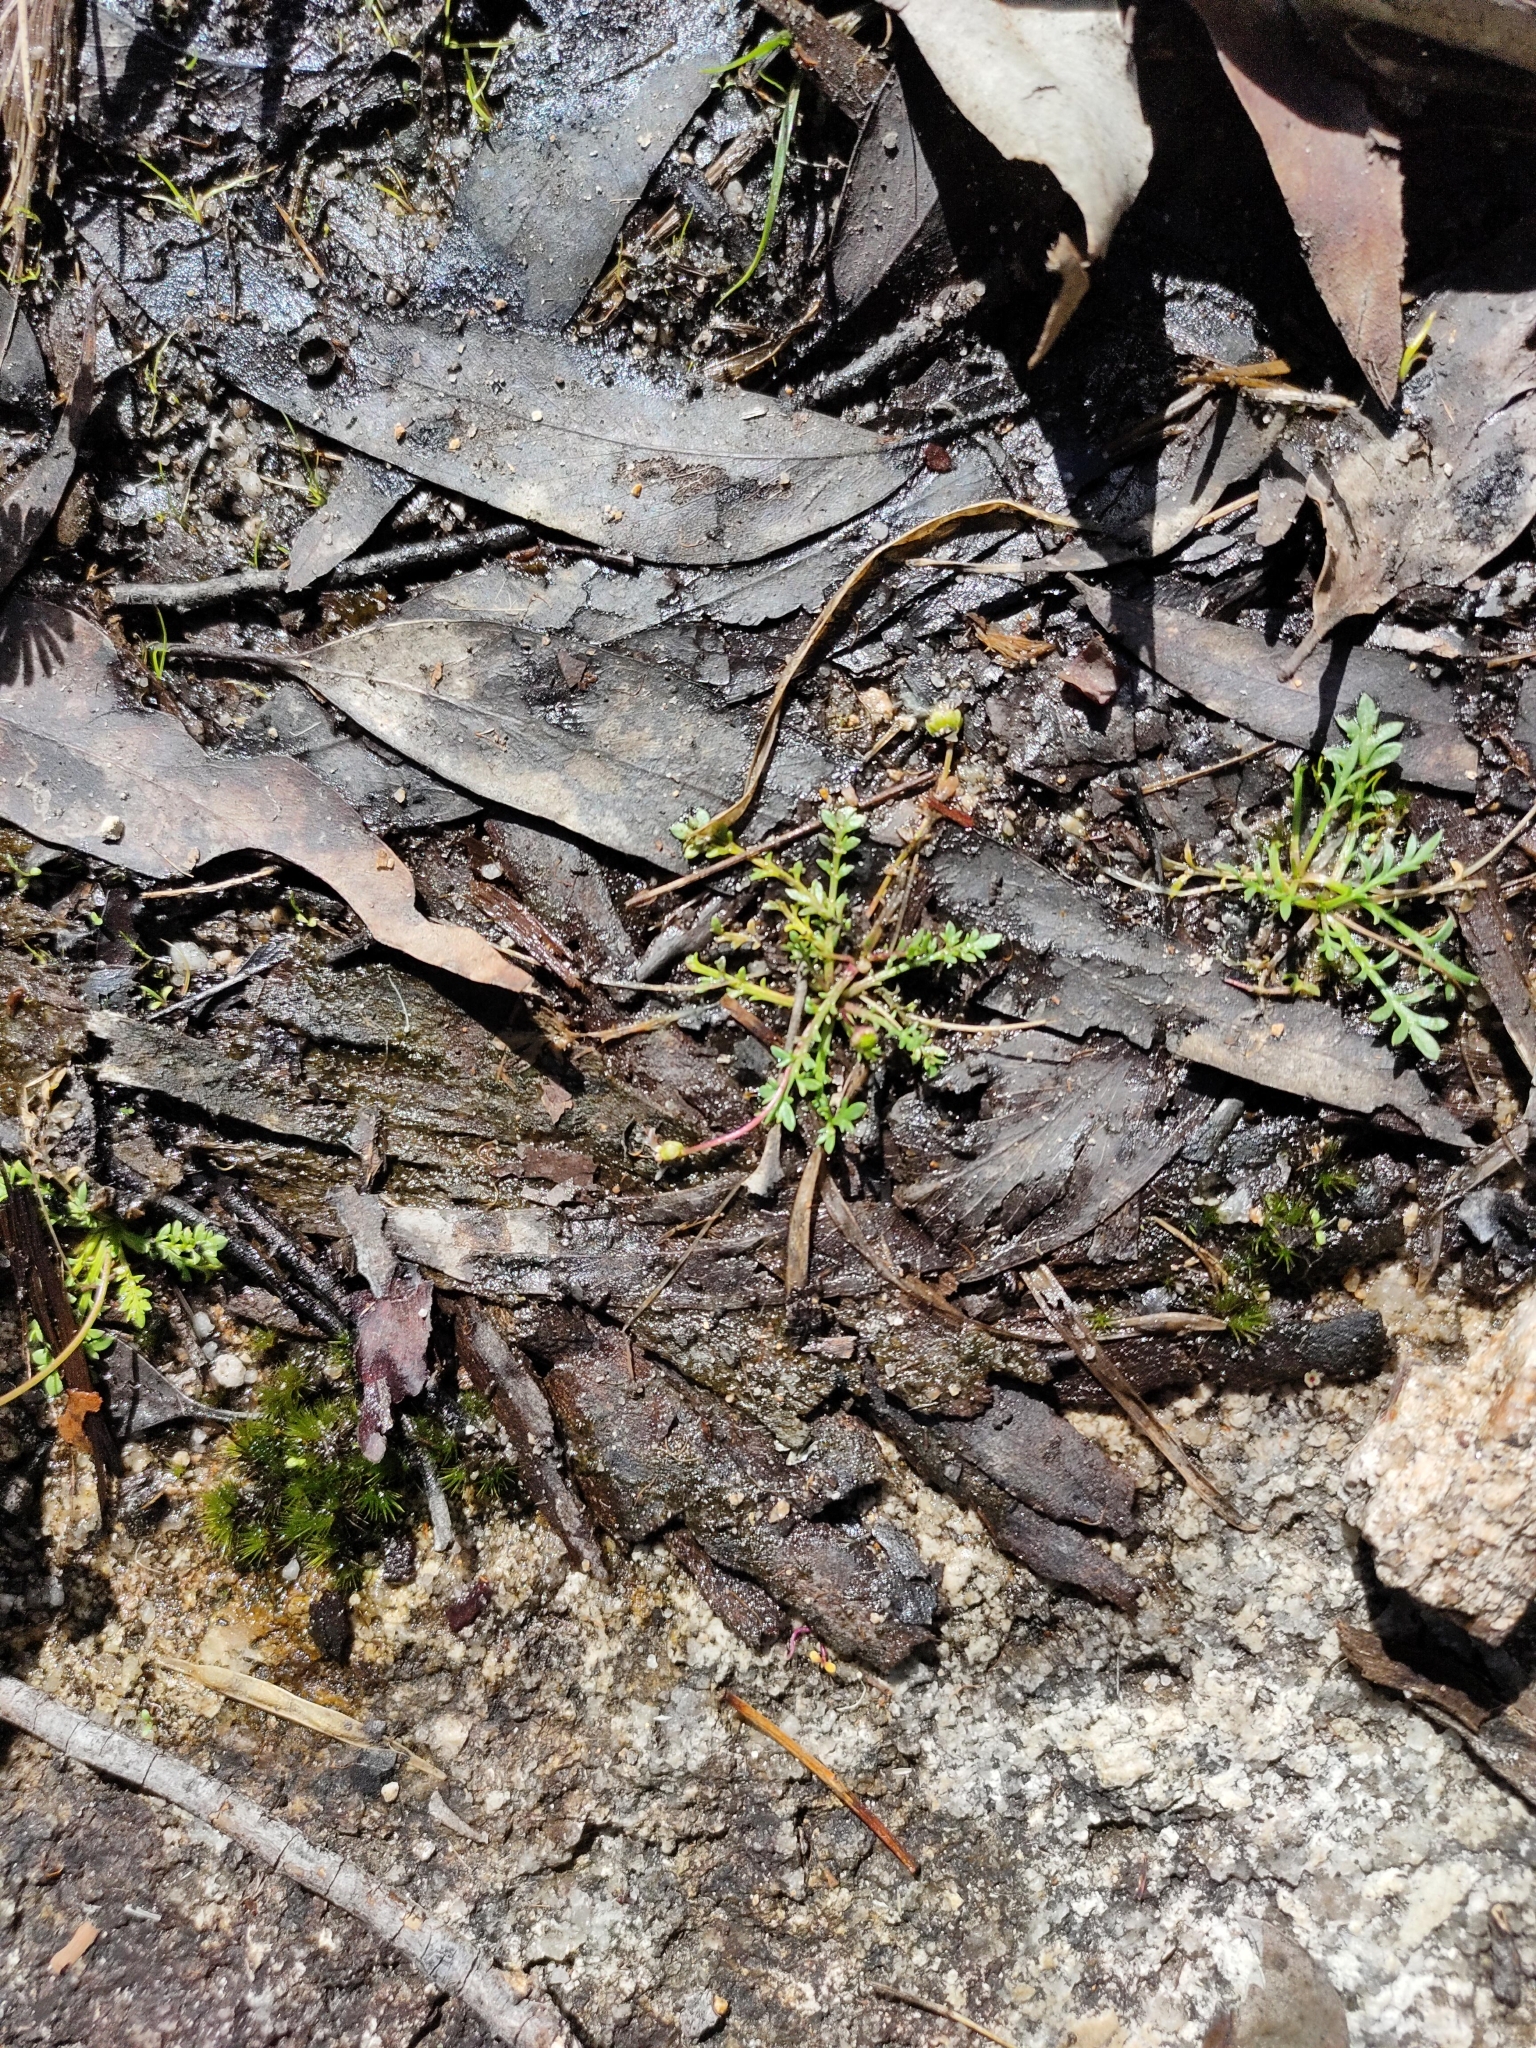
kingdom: Plantae
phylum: Tracheophyta
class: Magnoliopsida
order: Asterales
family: Asteraceae
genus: Brachyscome
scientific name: Brachyscome stuartii
